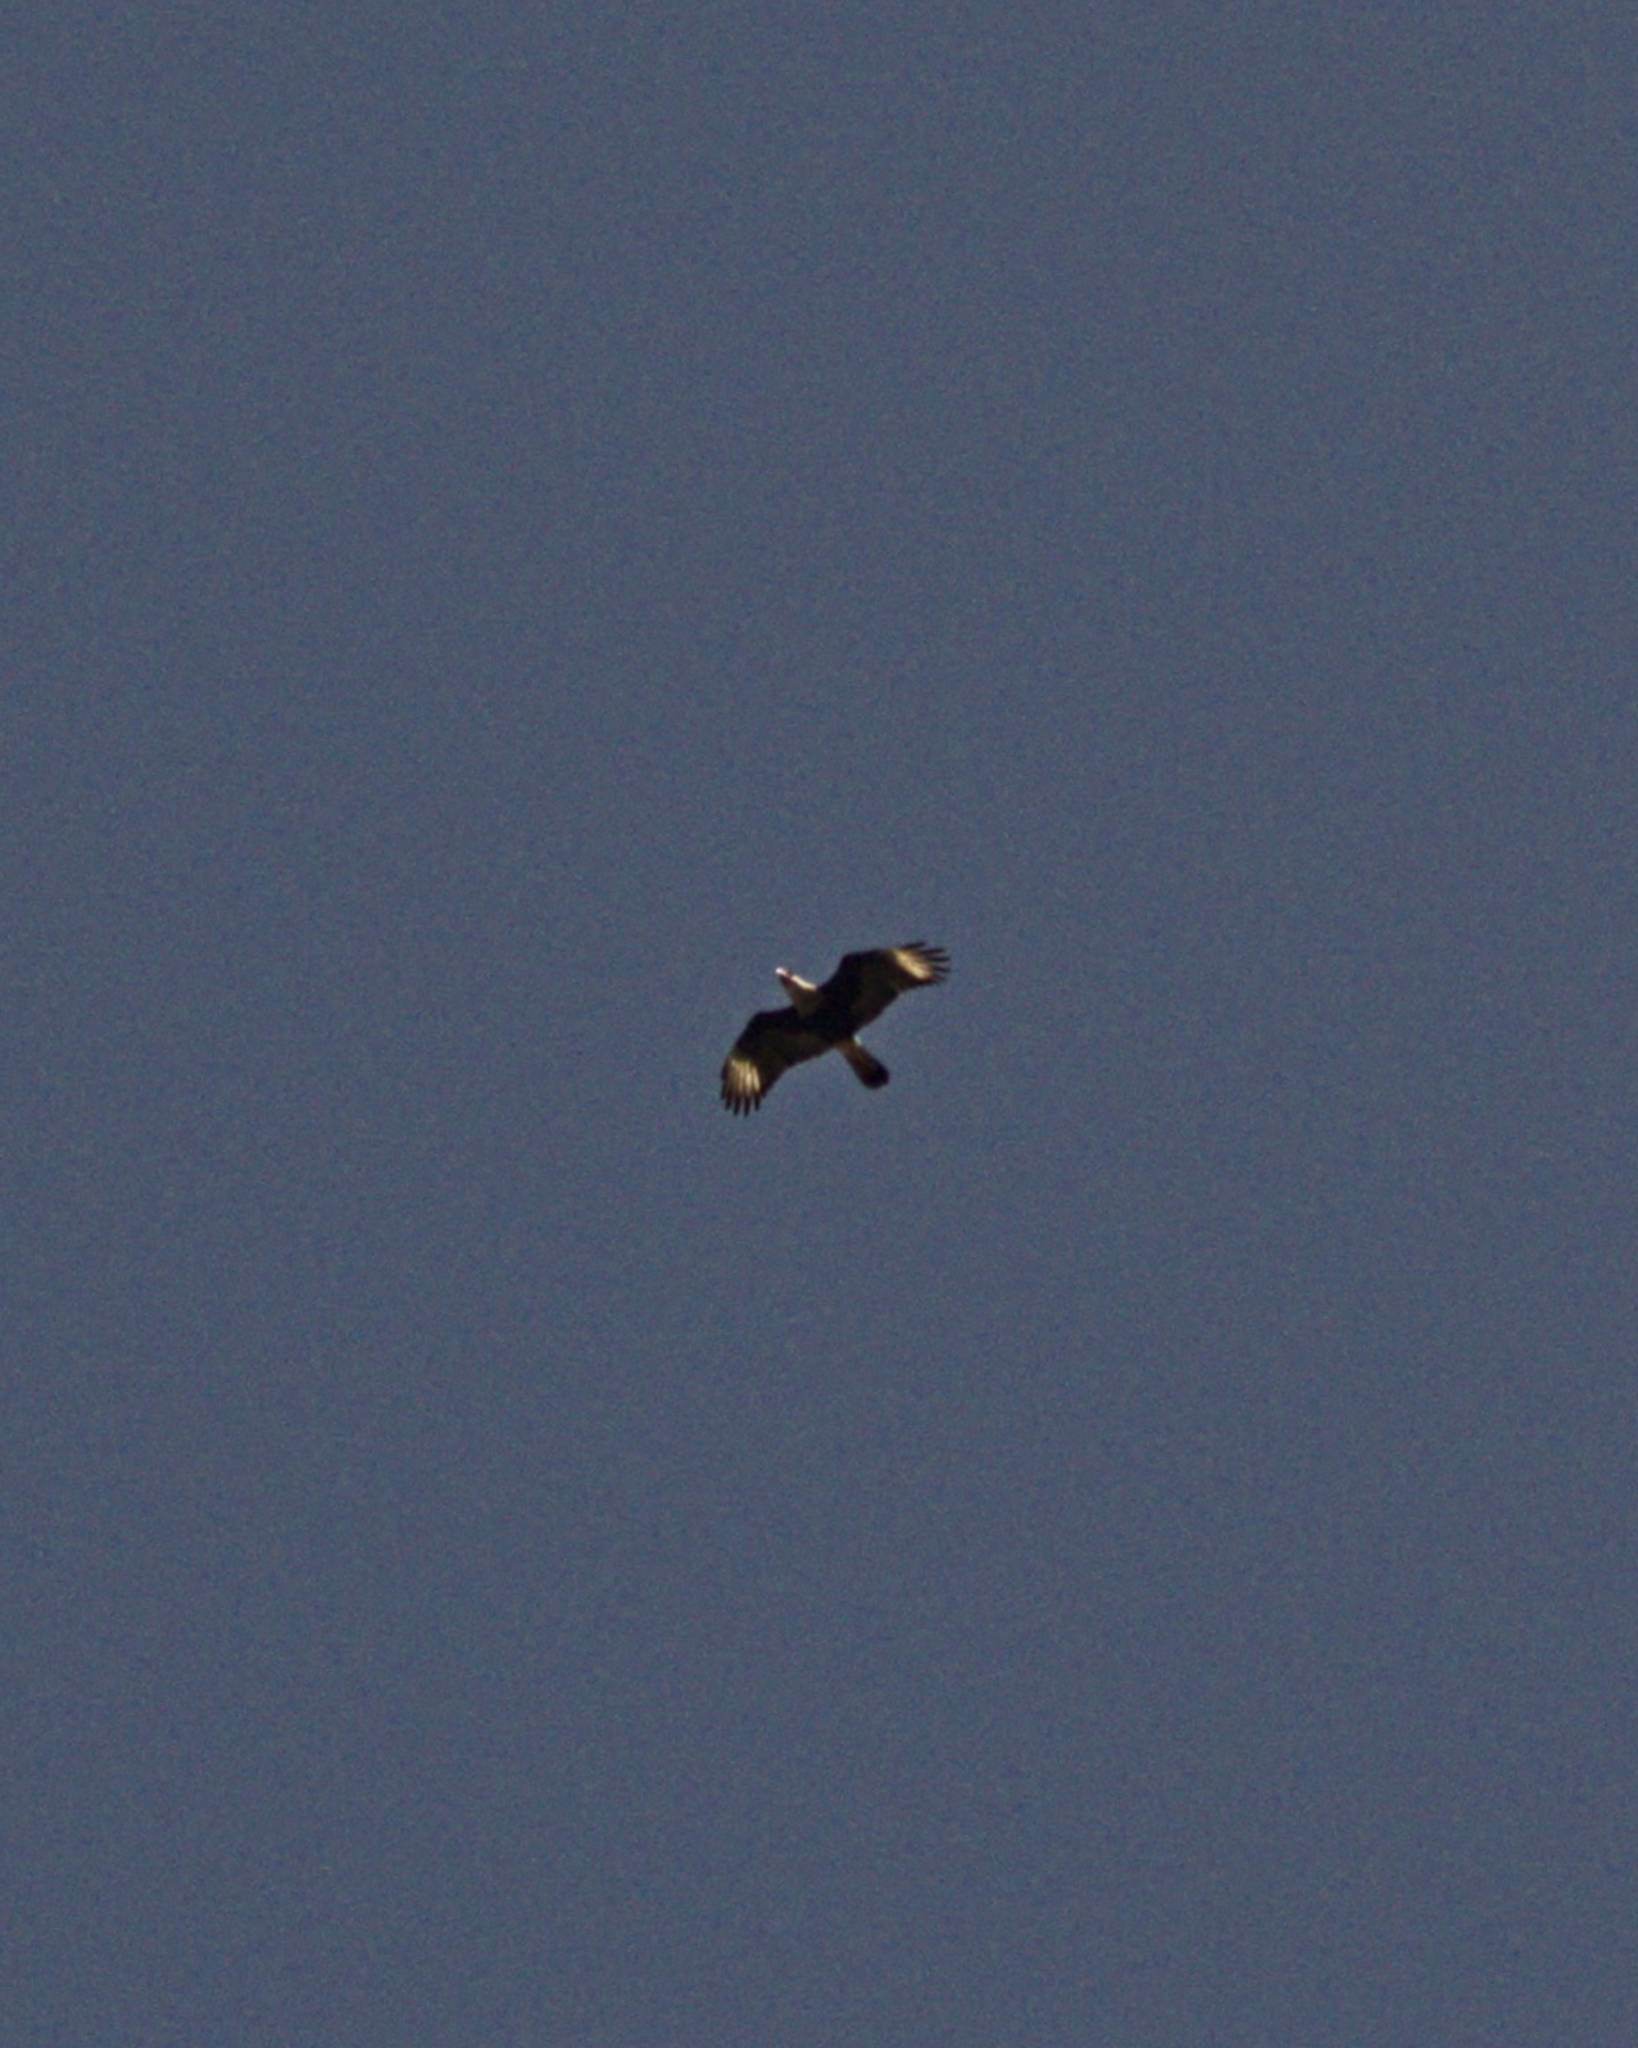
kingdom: Animalia
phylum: Chordata
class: Aves
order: Falconiformes
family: Falconidae
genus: Caracara
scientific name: Caracara plancus
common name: Southern caracara
